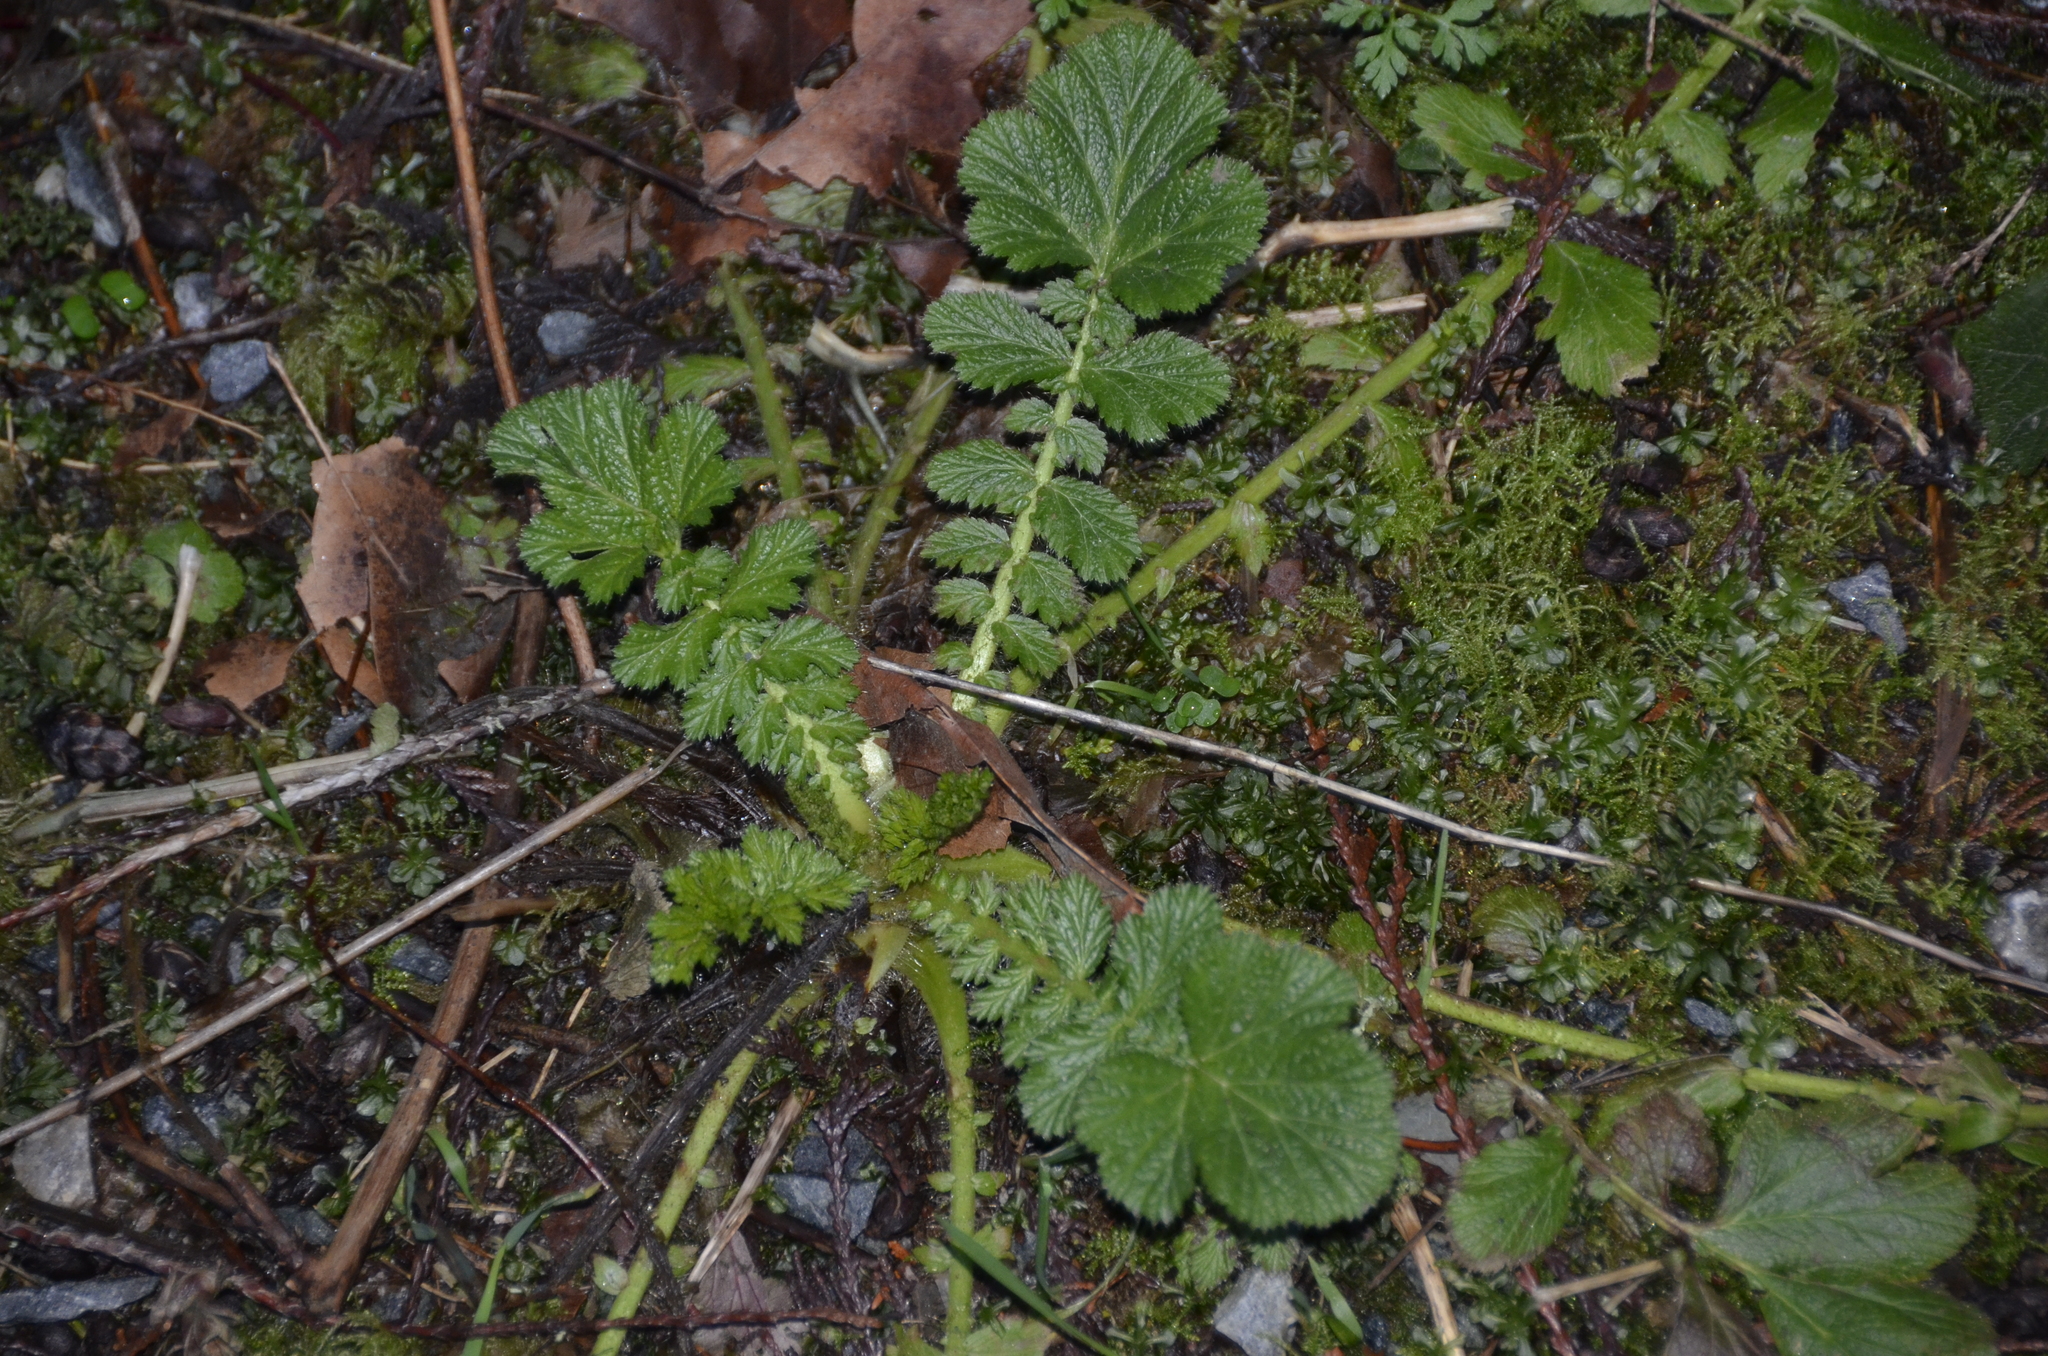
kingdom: Plantae
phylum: Tracheophyta
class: Magnoliopsida
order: Rosales
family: Rosaceae
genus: Geum
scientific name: Geum macrophyllum
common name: Large-leaved avens
